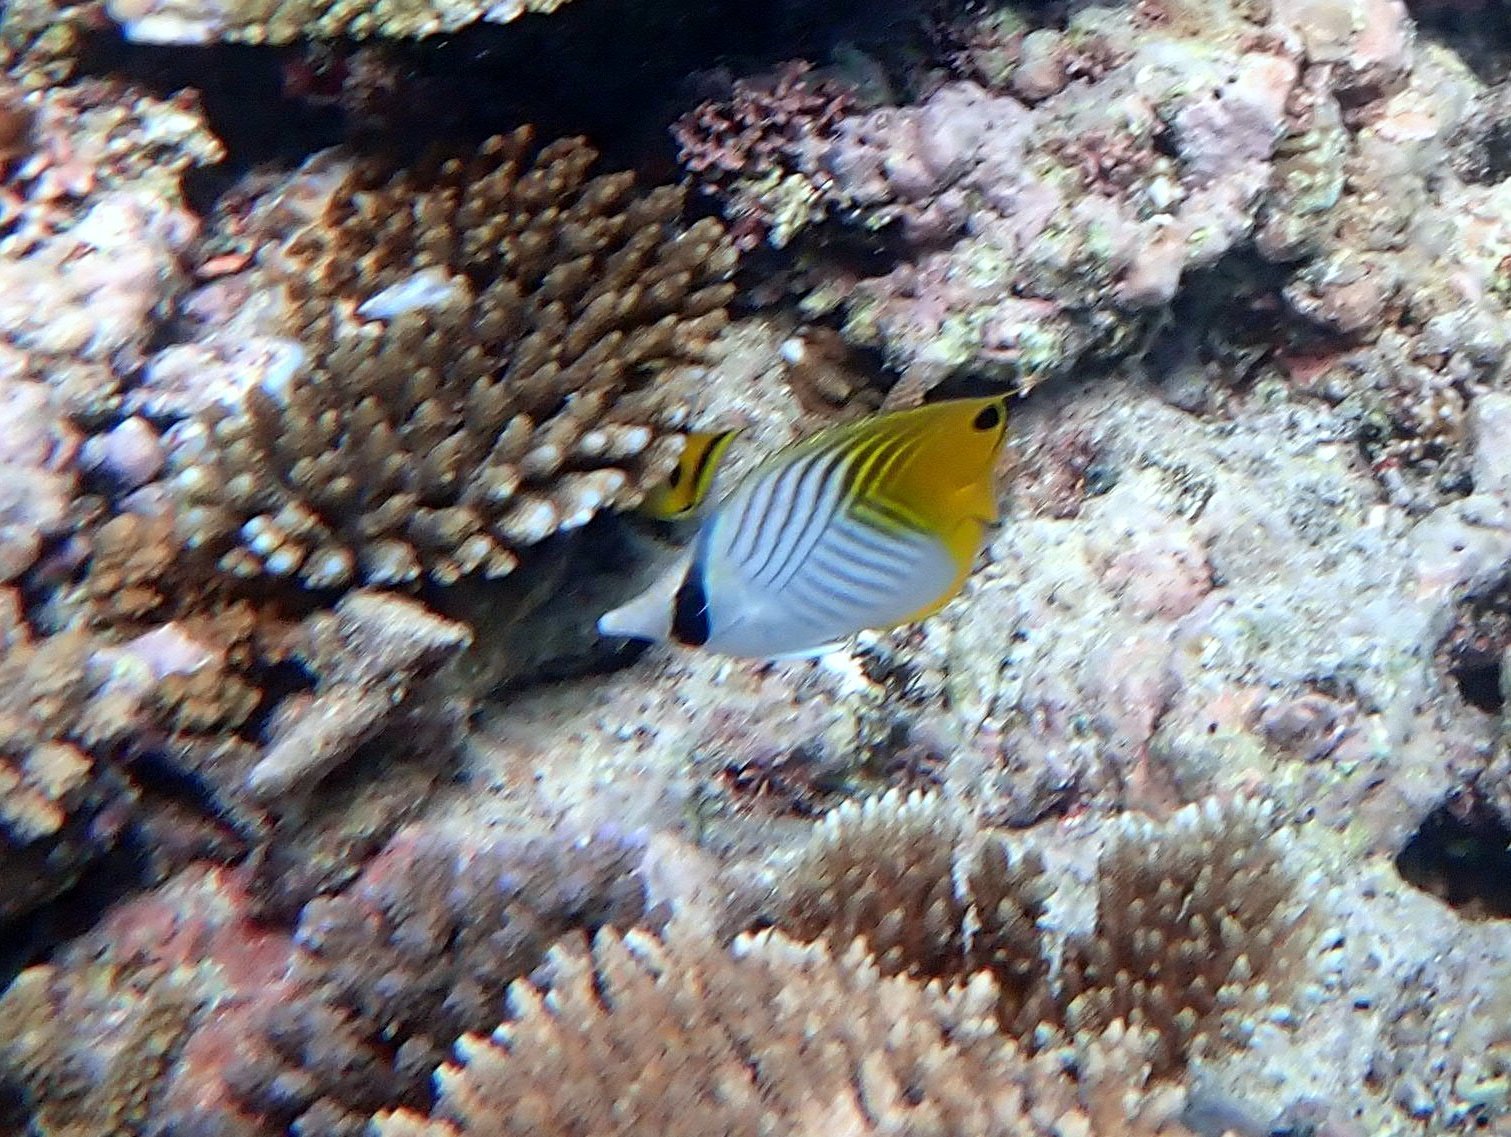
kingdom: Animalia
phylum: Chordata
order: Perciformes
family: Chaetodontidae
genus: Chaetodon
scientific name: Chaetodon auriga
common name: Threadfin butterflyfish
